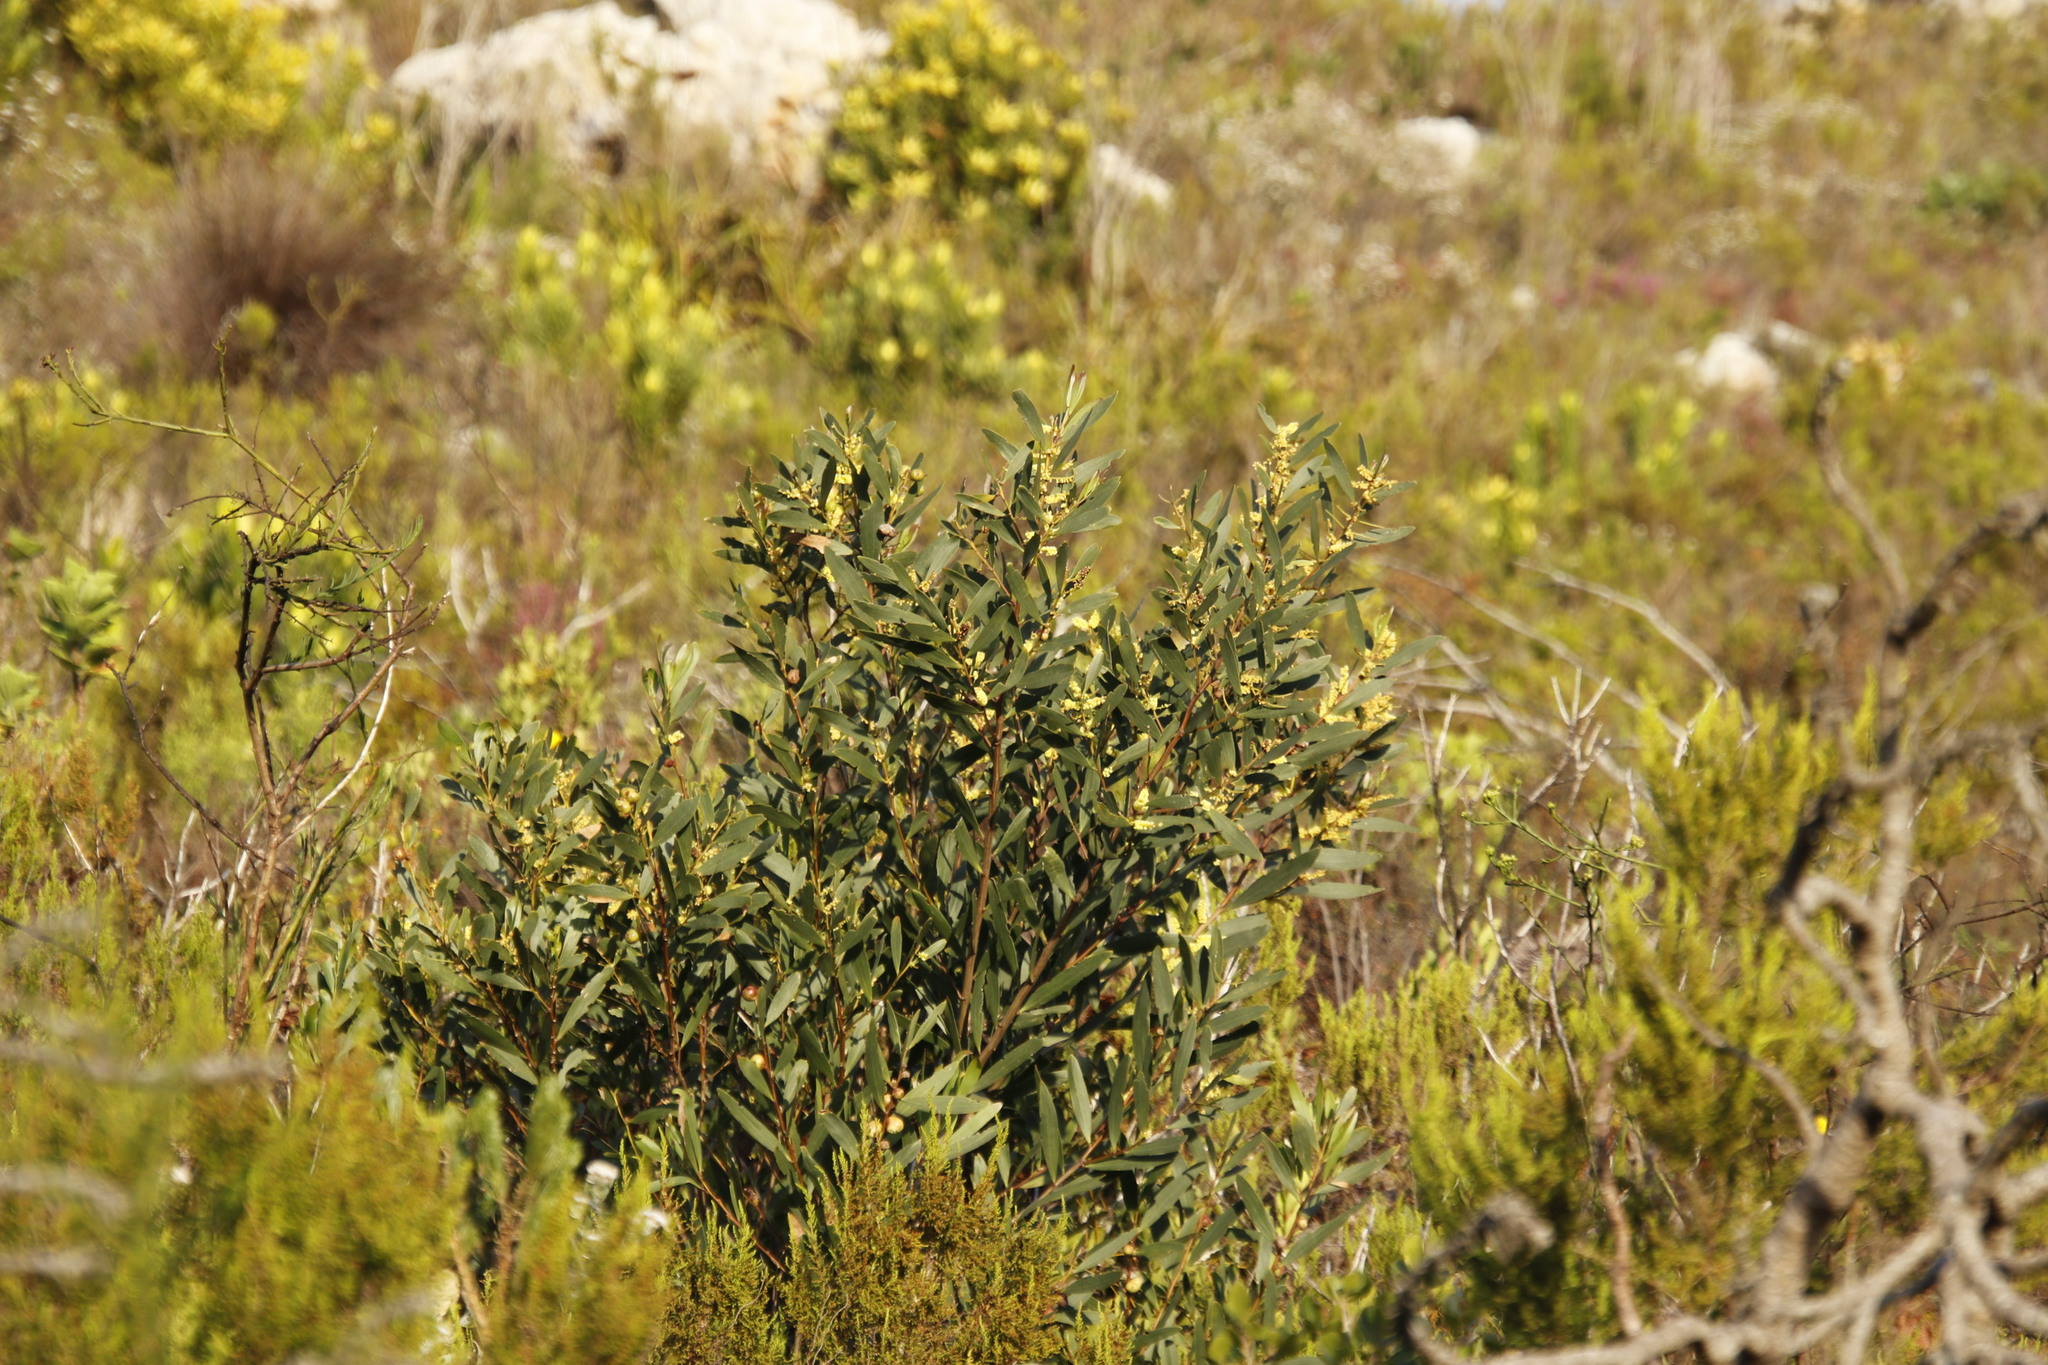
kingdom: Plantae
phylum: Tracheophyta
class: Magnoliopsida
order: Fabales
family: Fabaceae
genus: Acacia
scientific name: Acacia longifolia
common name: Sydney golden wattle
